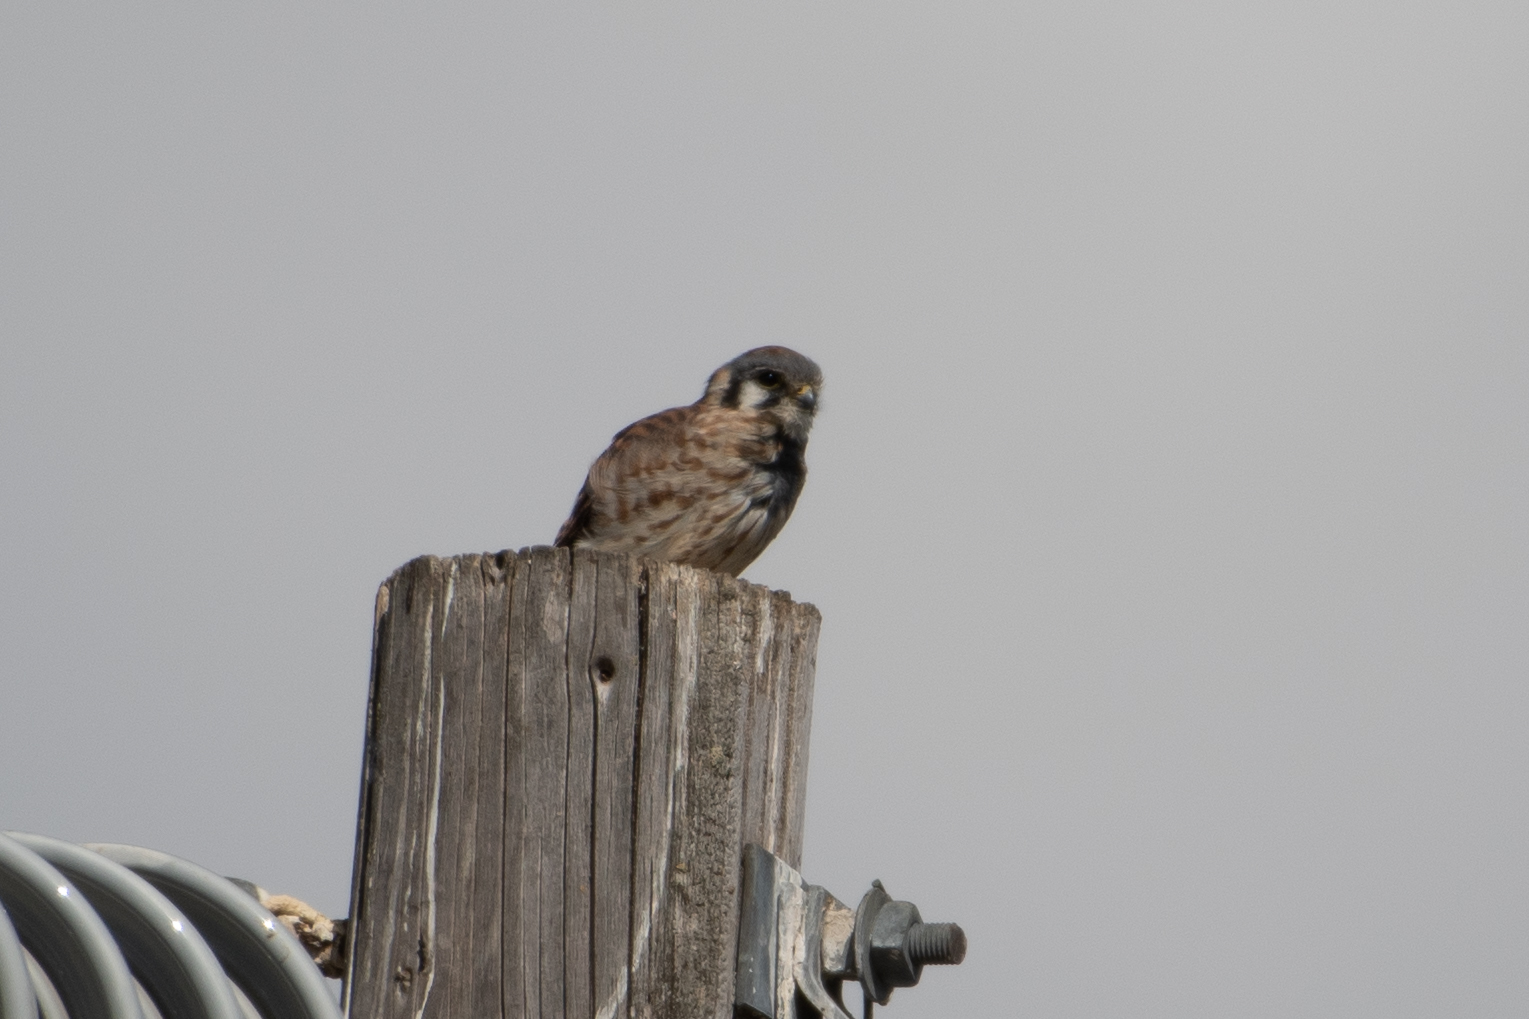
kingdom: Animalia
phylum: Chordata
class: Aves
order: Falconiformes
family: Falconidae
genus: Falco
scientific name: Falco sparverius
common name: American kestrel
